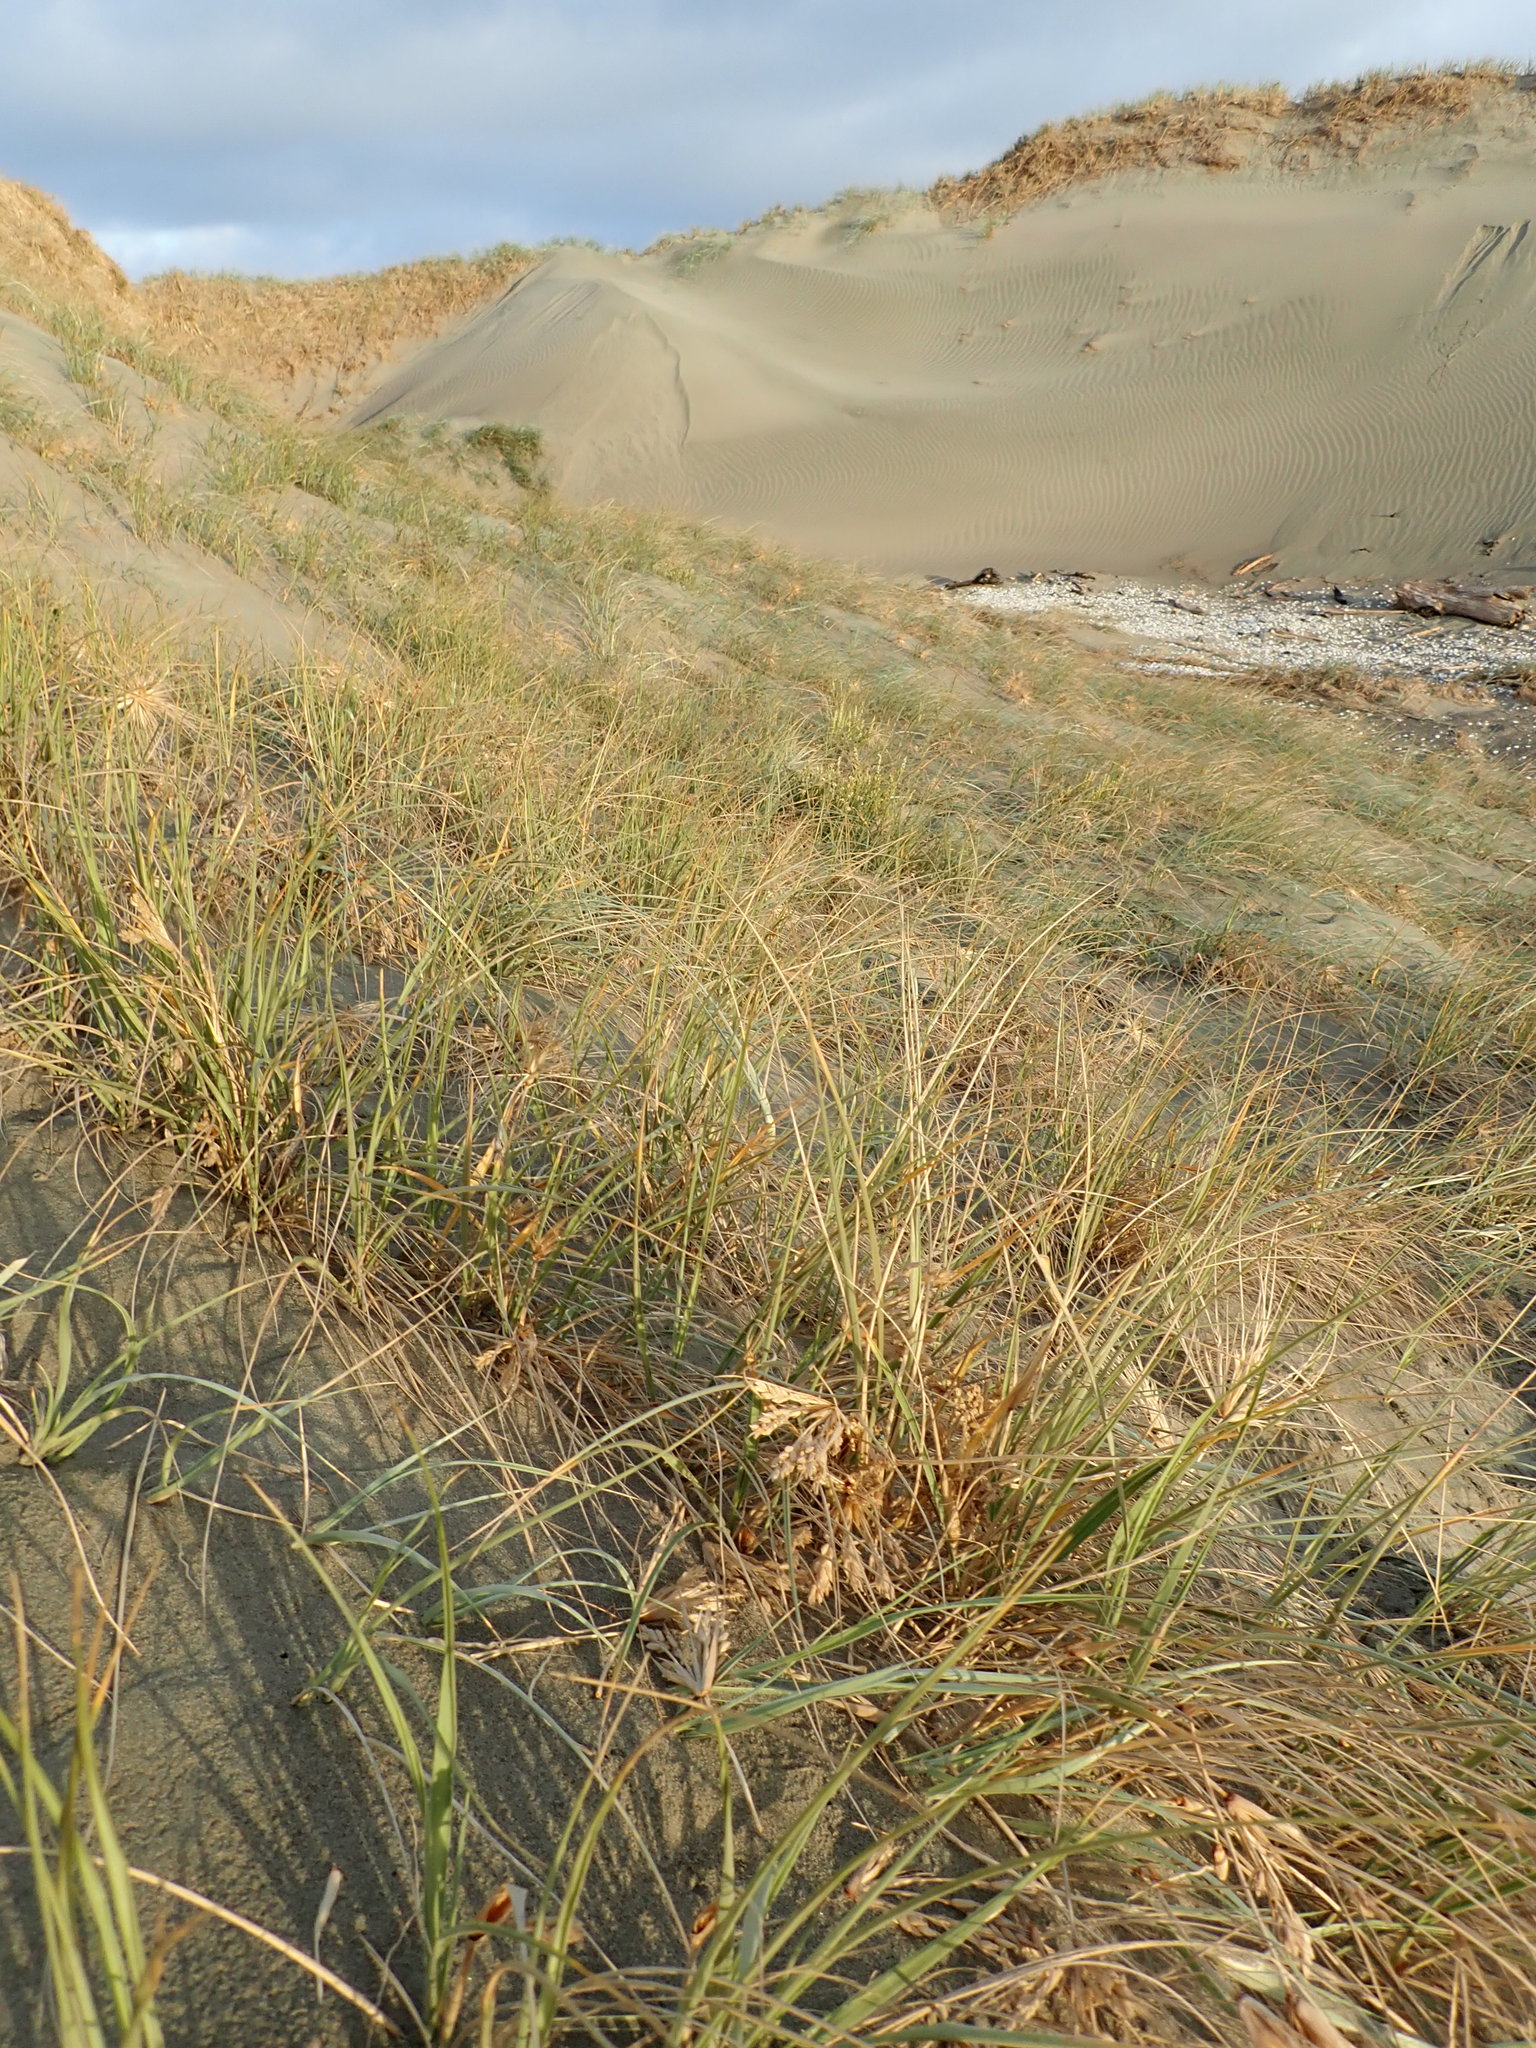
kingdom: Plantae
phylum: Tracheophyta
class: Liliopsida
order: Poales
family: Poaceae
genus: Spinifex
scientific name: Spinifex sericeus
